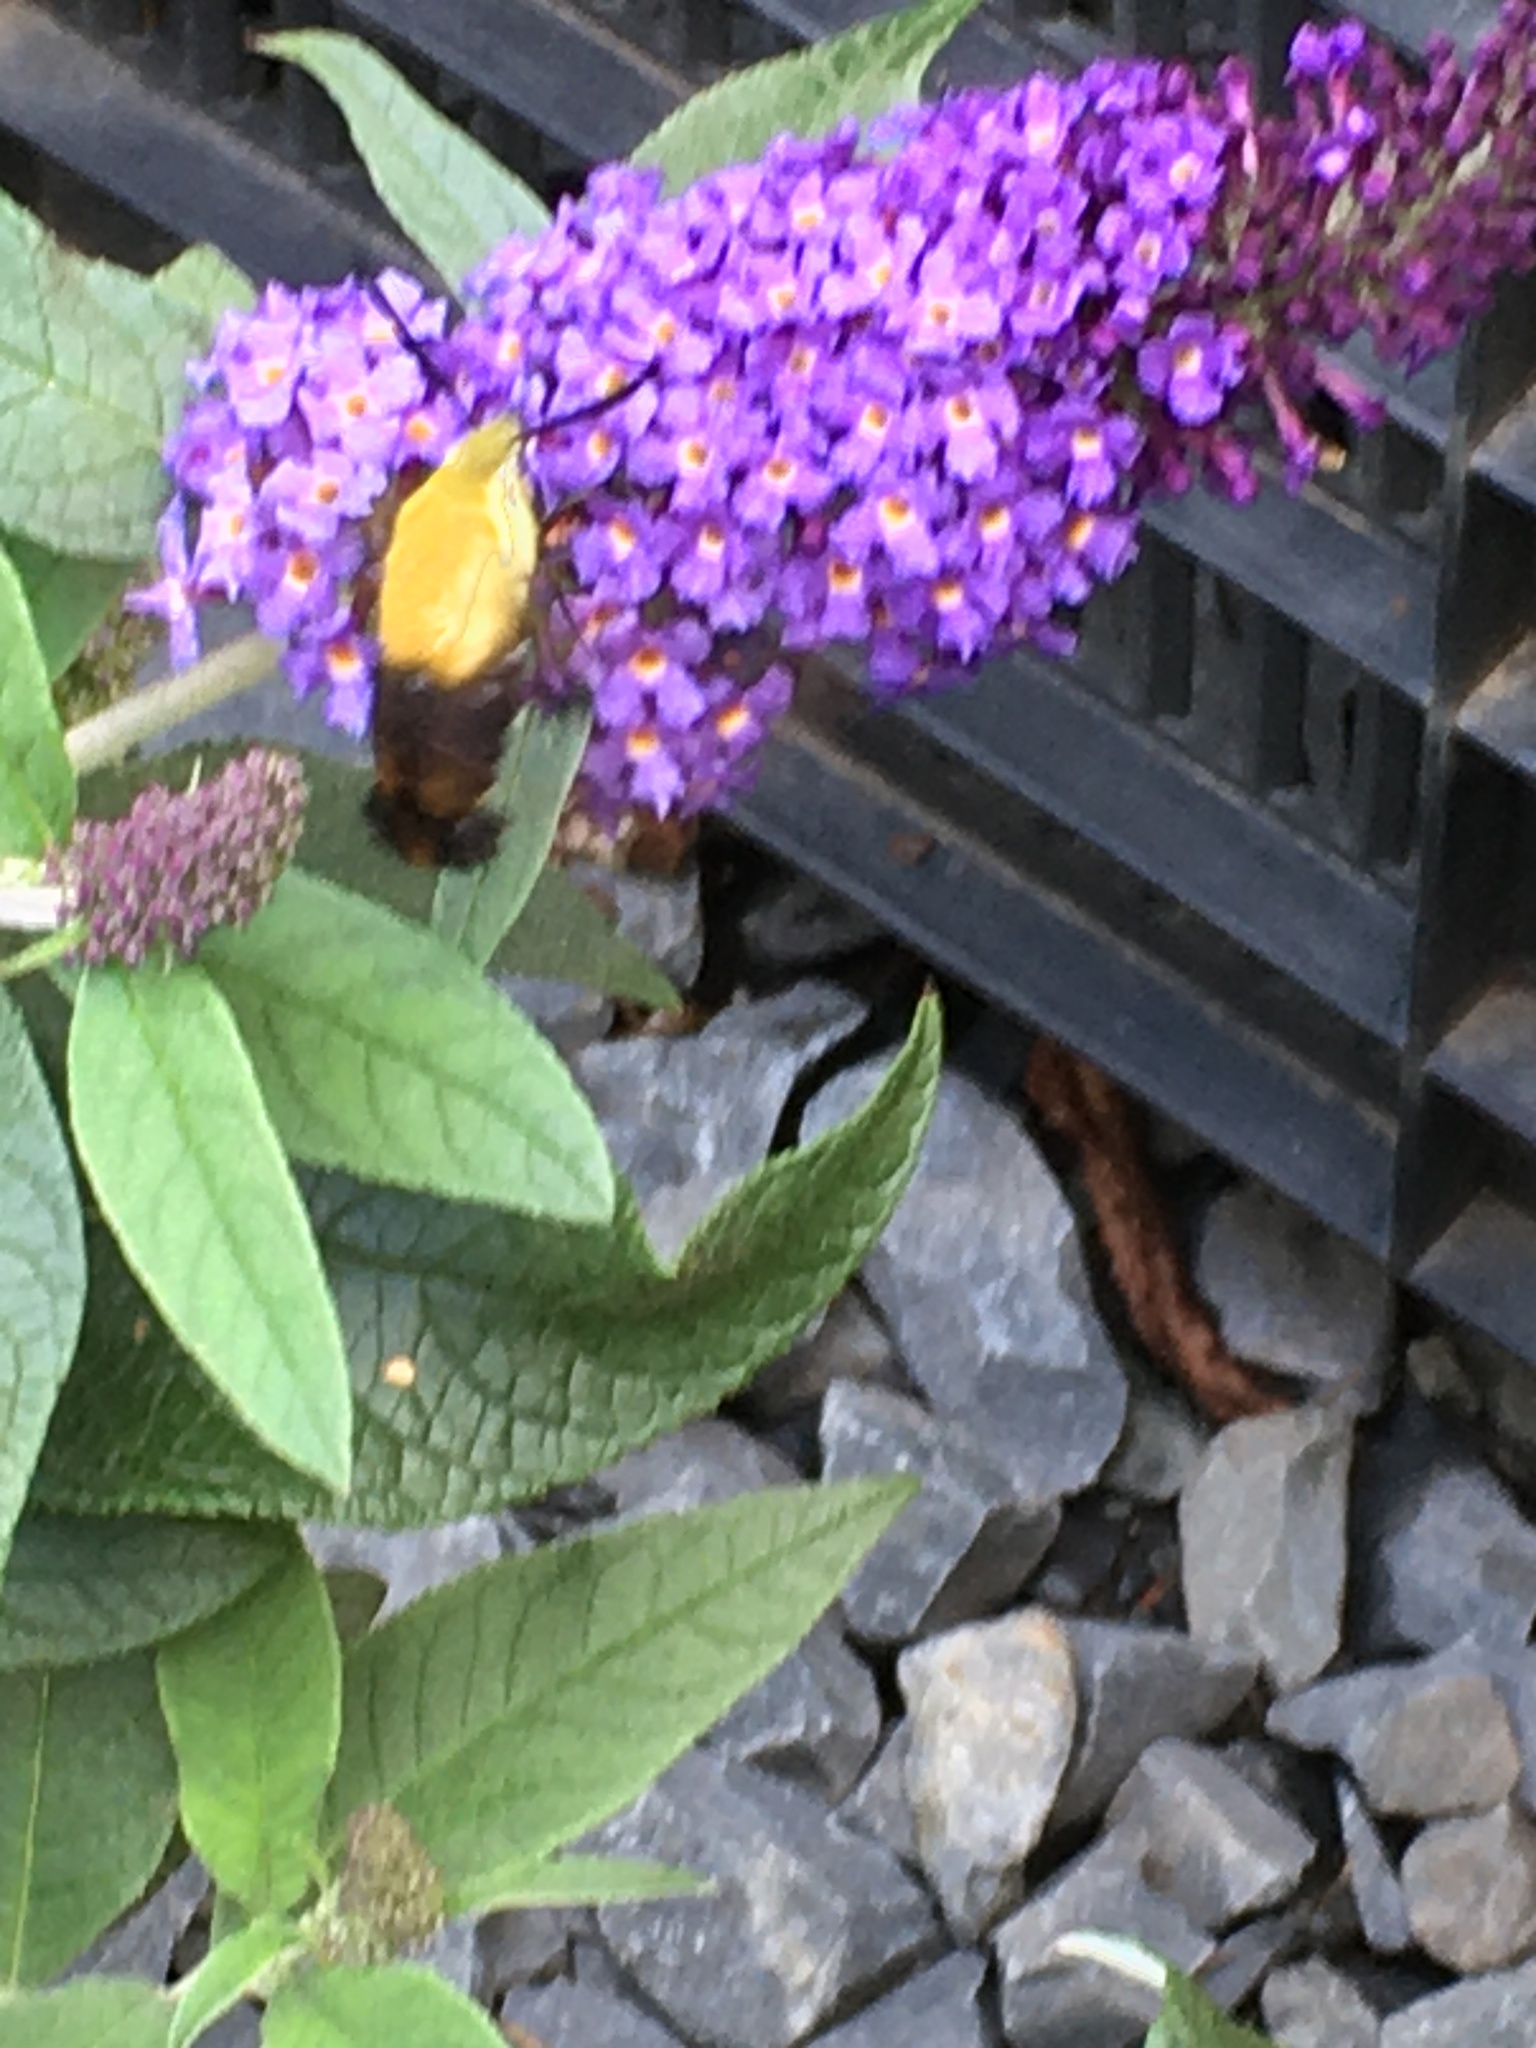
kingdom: Animalia
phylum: Arthropoda
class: Insecta
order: Lepidoptera
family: Sphingidae
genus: Hemaris
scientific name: Hemaris diffinis
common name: Bumblebee moth
